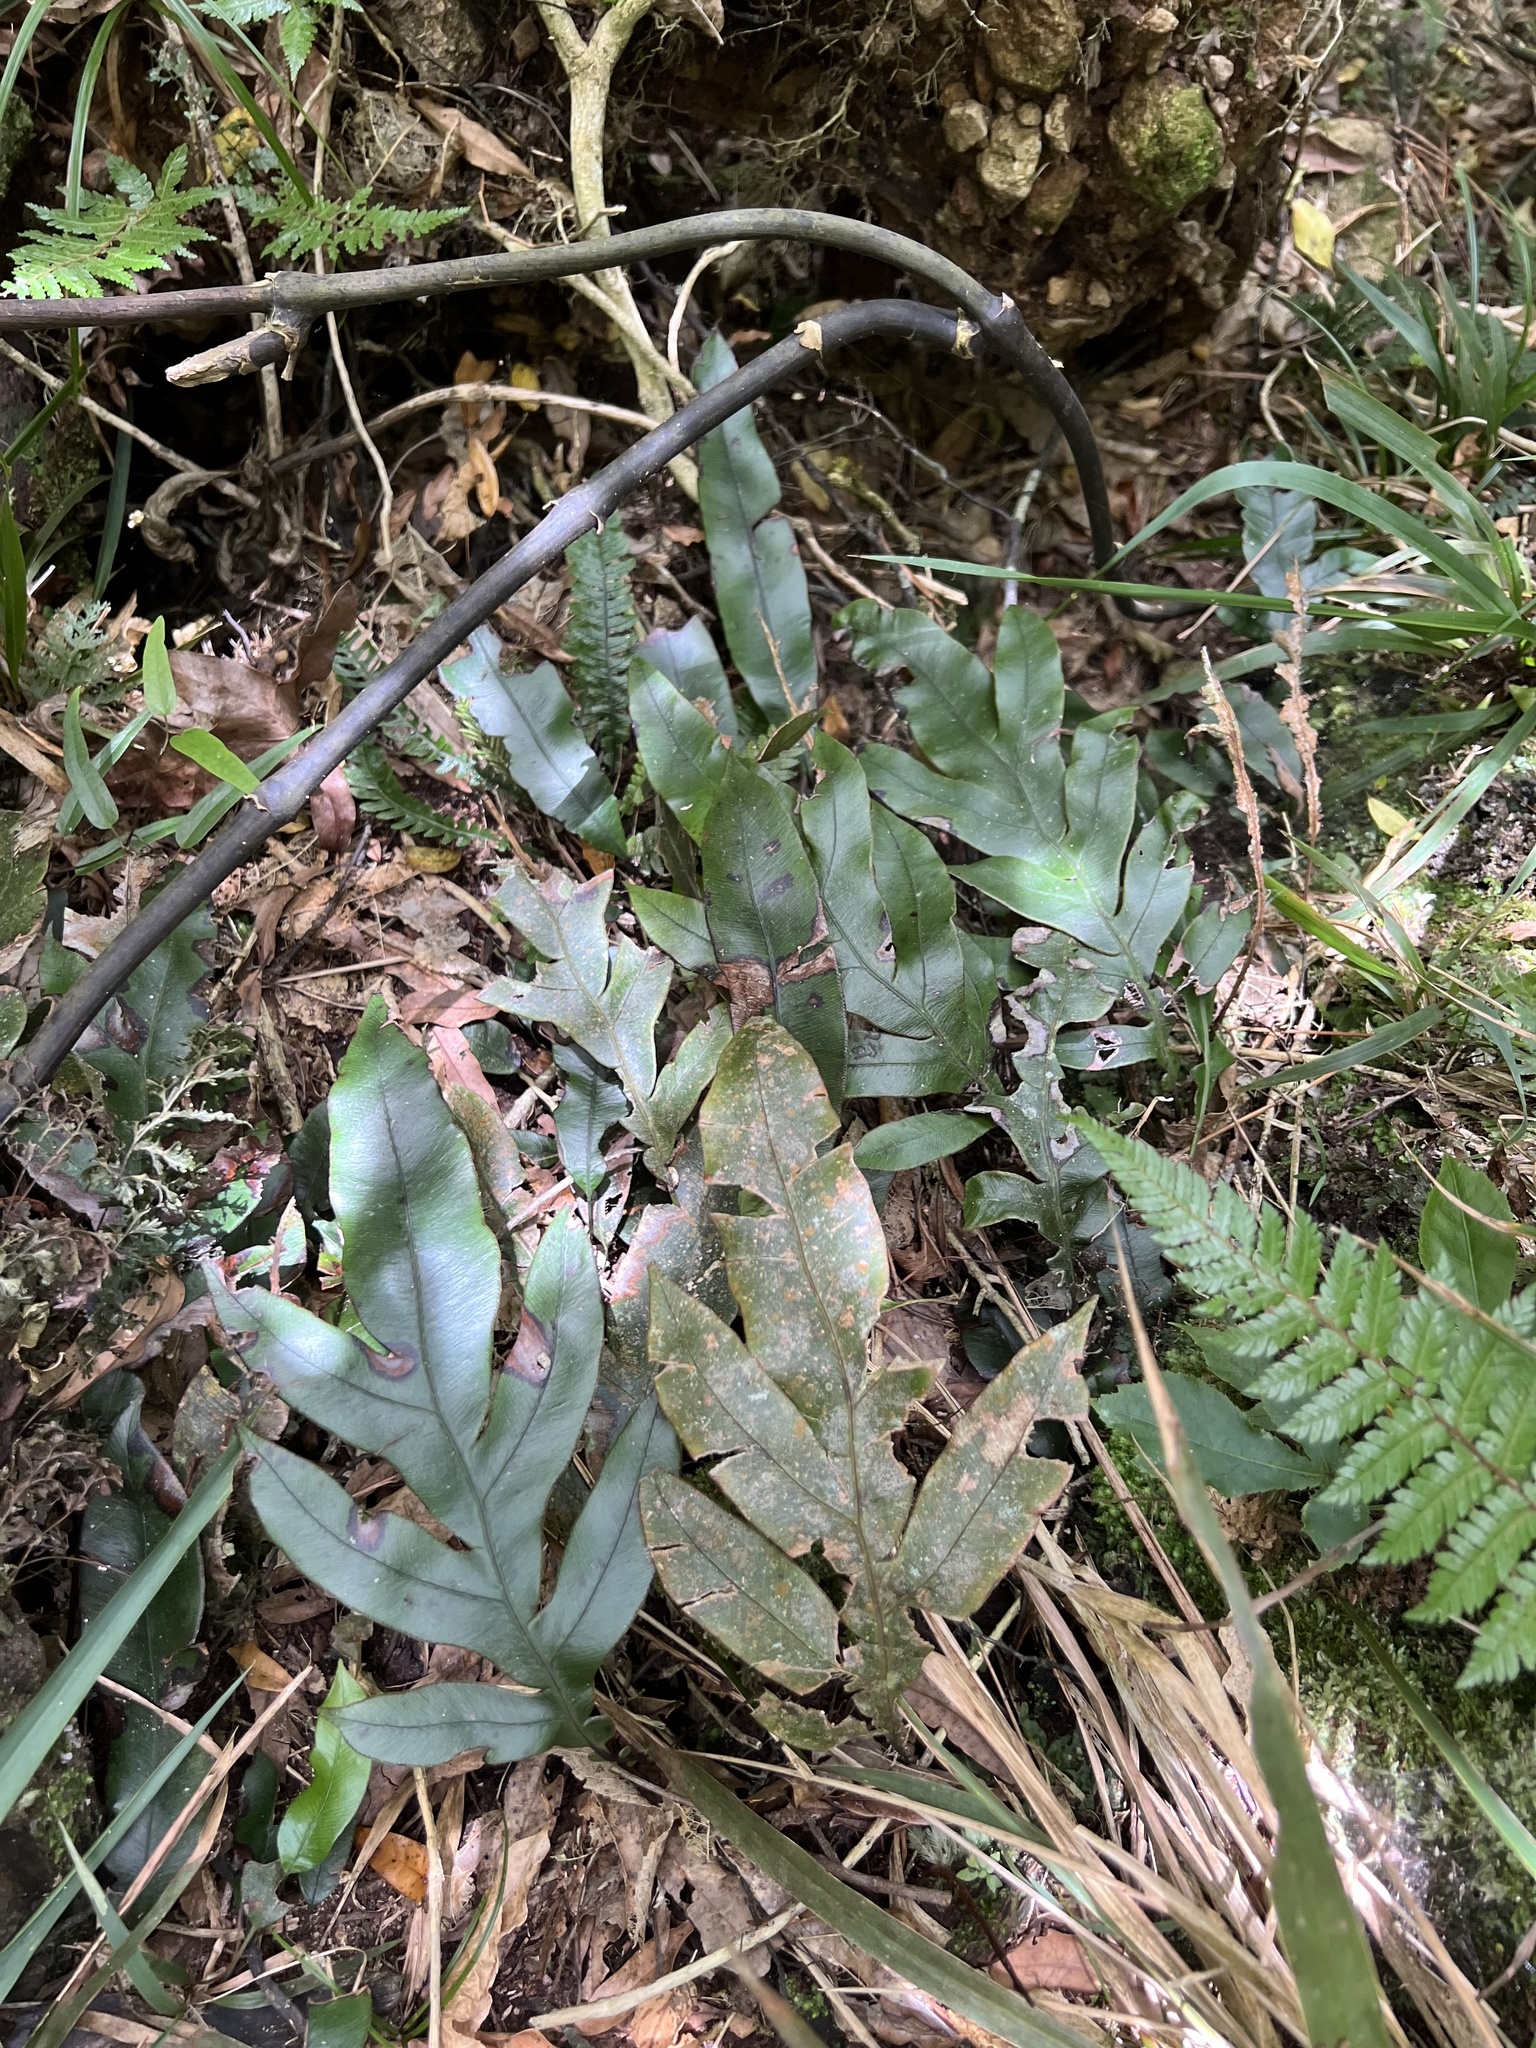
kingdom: Plantae
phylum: Tracheophyta
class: Polypodiopsida
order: Polypodiales
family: Blechnaceae
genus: Austroblechnum
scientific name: Austroblechnum colensoi
